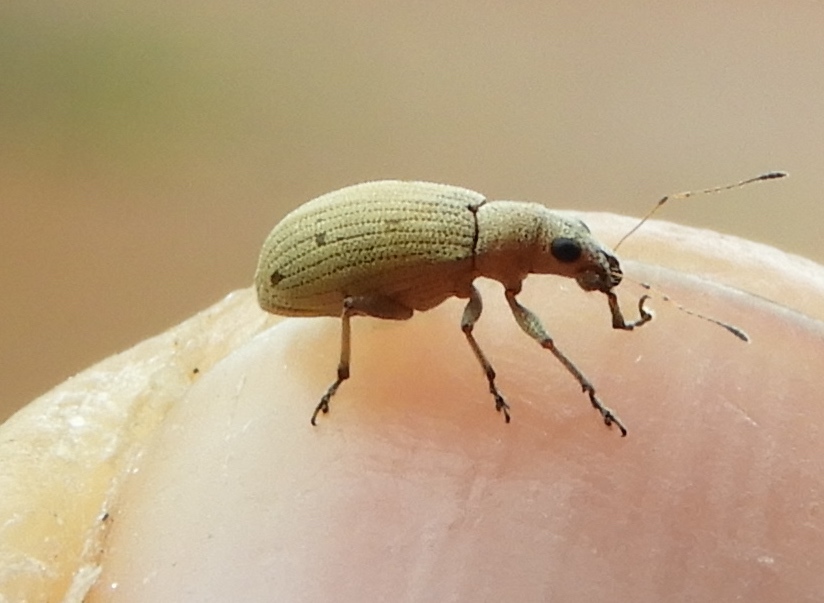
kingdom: Animalia
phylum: Arthropoda
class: Insecta
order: Coleoptera
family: Curculionidae
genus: Mitostylus
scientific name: Mitostylus
